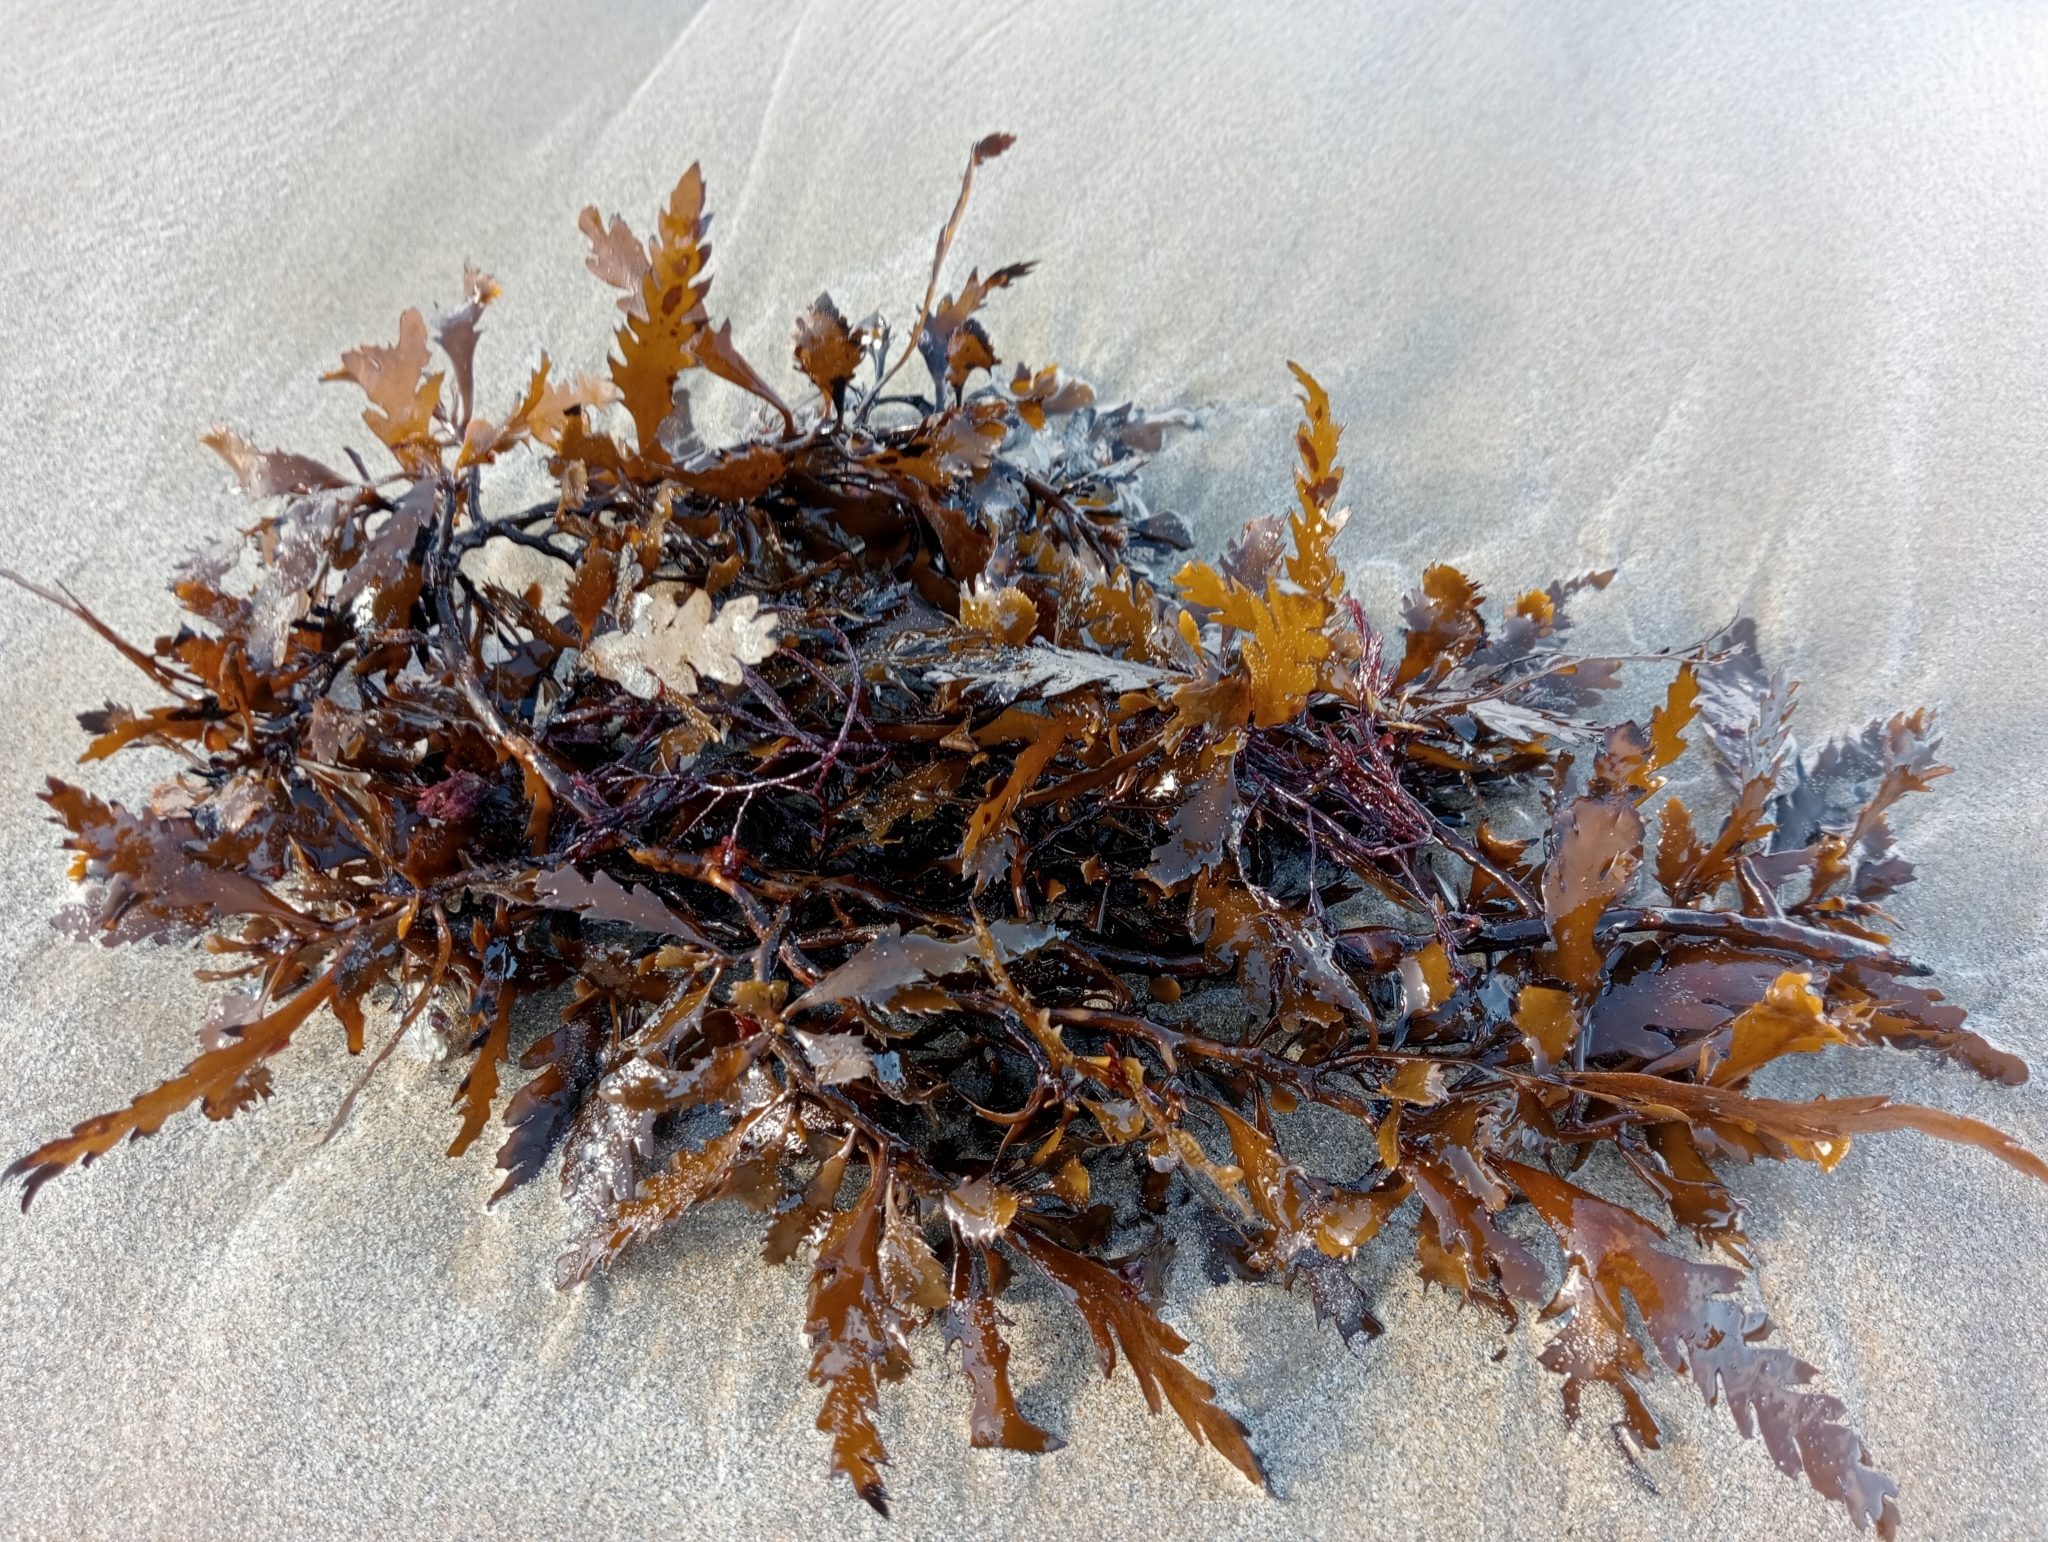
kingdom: Chromista
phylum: Ochrophyta
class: Phaeophyceae
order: Fucales
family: Sargassaceae
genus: Landsburgia
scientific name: Landsburgia quercifolia
